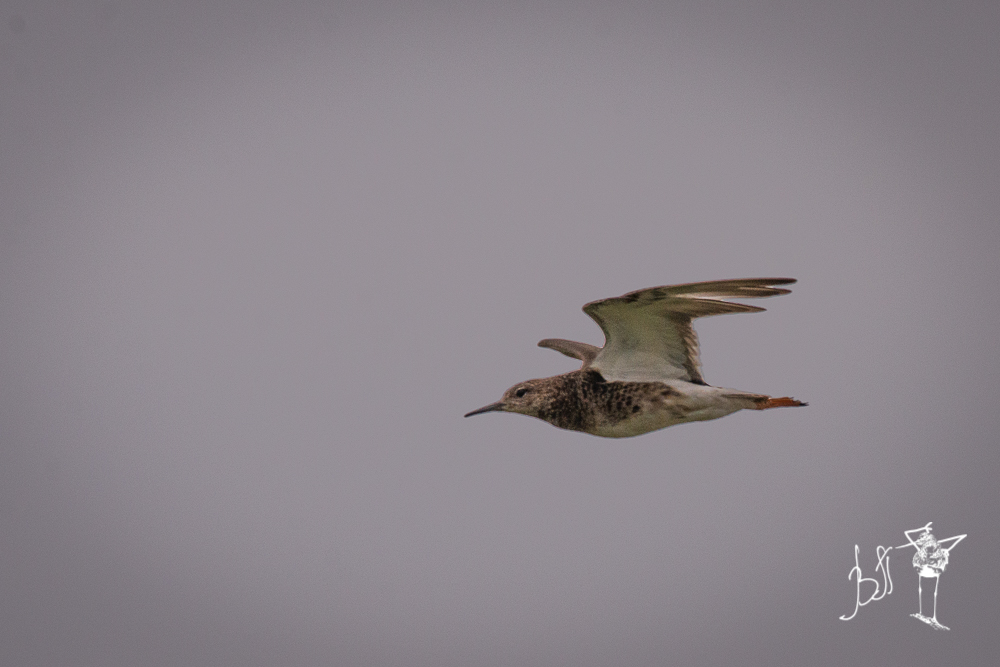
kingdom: Animalia
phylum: Chordata
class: Aves
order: Charadriiformes
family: Scolopacidae
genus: Calidris
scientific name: Calidris pugnax
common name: Ruff
